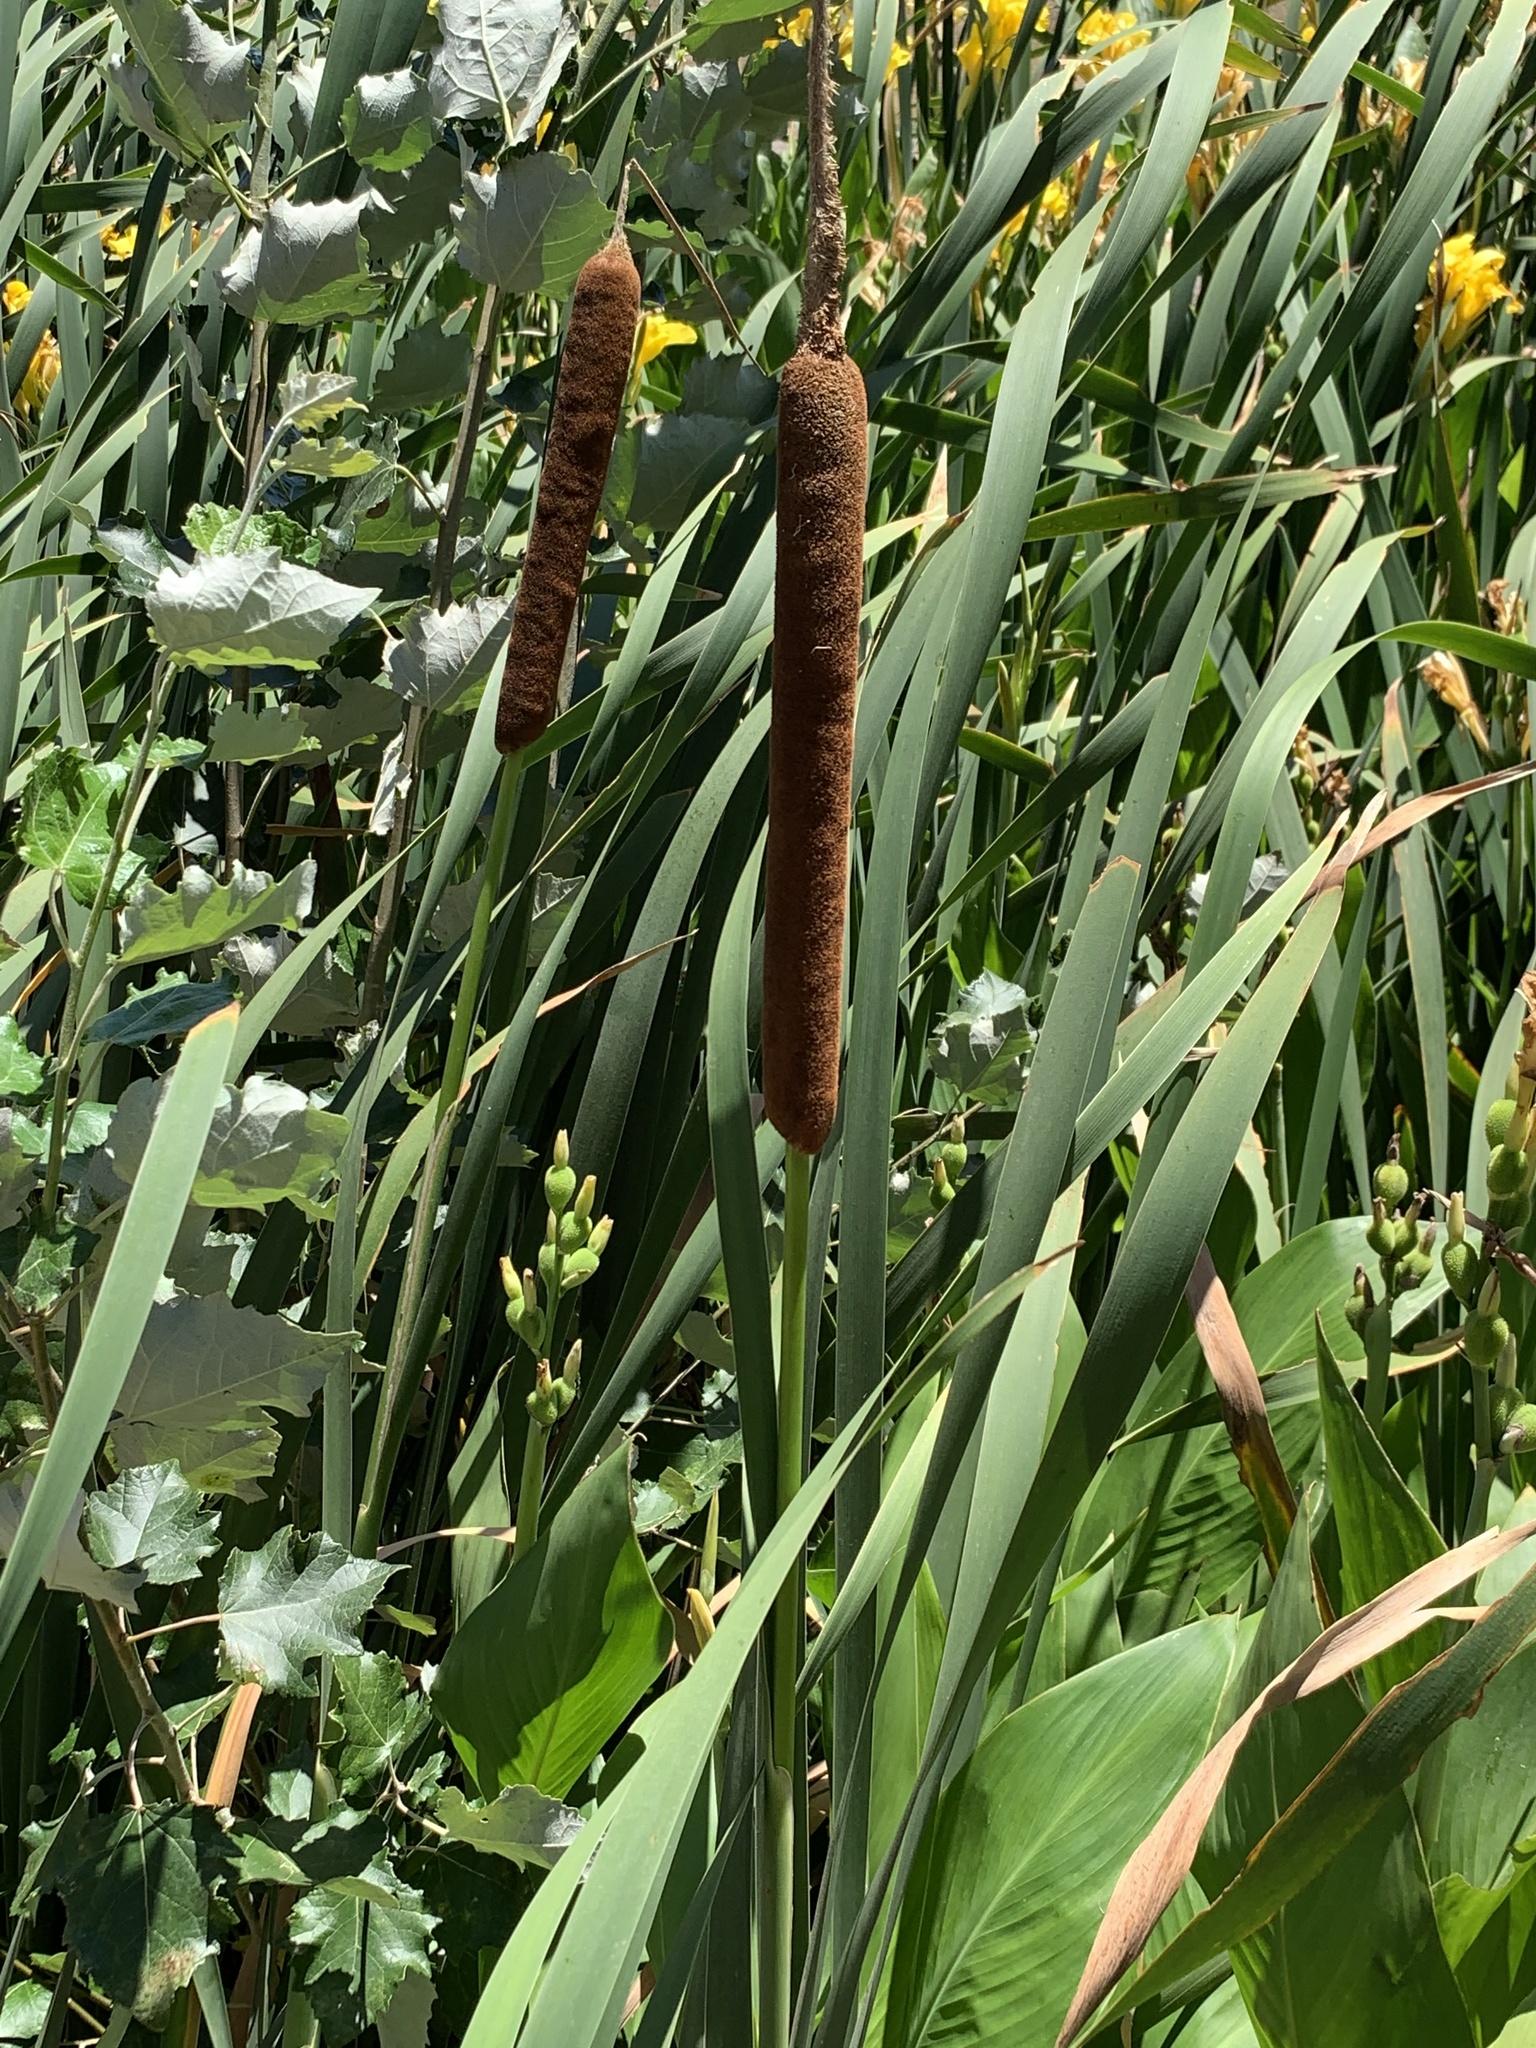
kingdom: Plantae
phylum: Tracheophyta
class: Liliopsida
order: Poales
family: Typhaceae
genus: Typha
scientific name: Typha capensis
